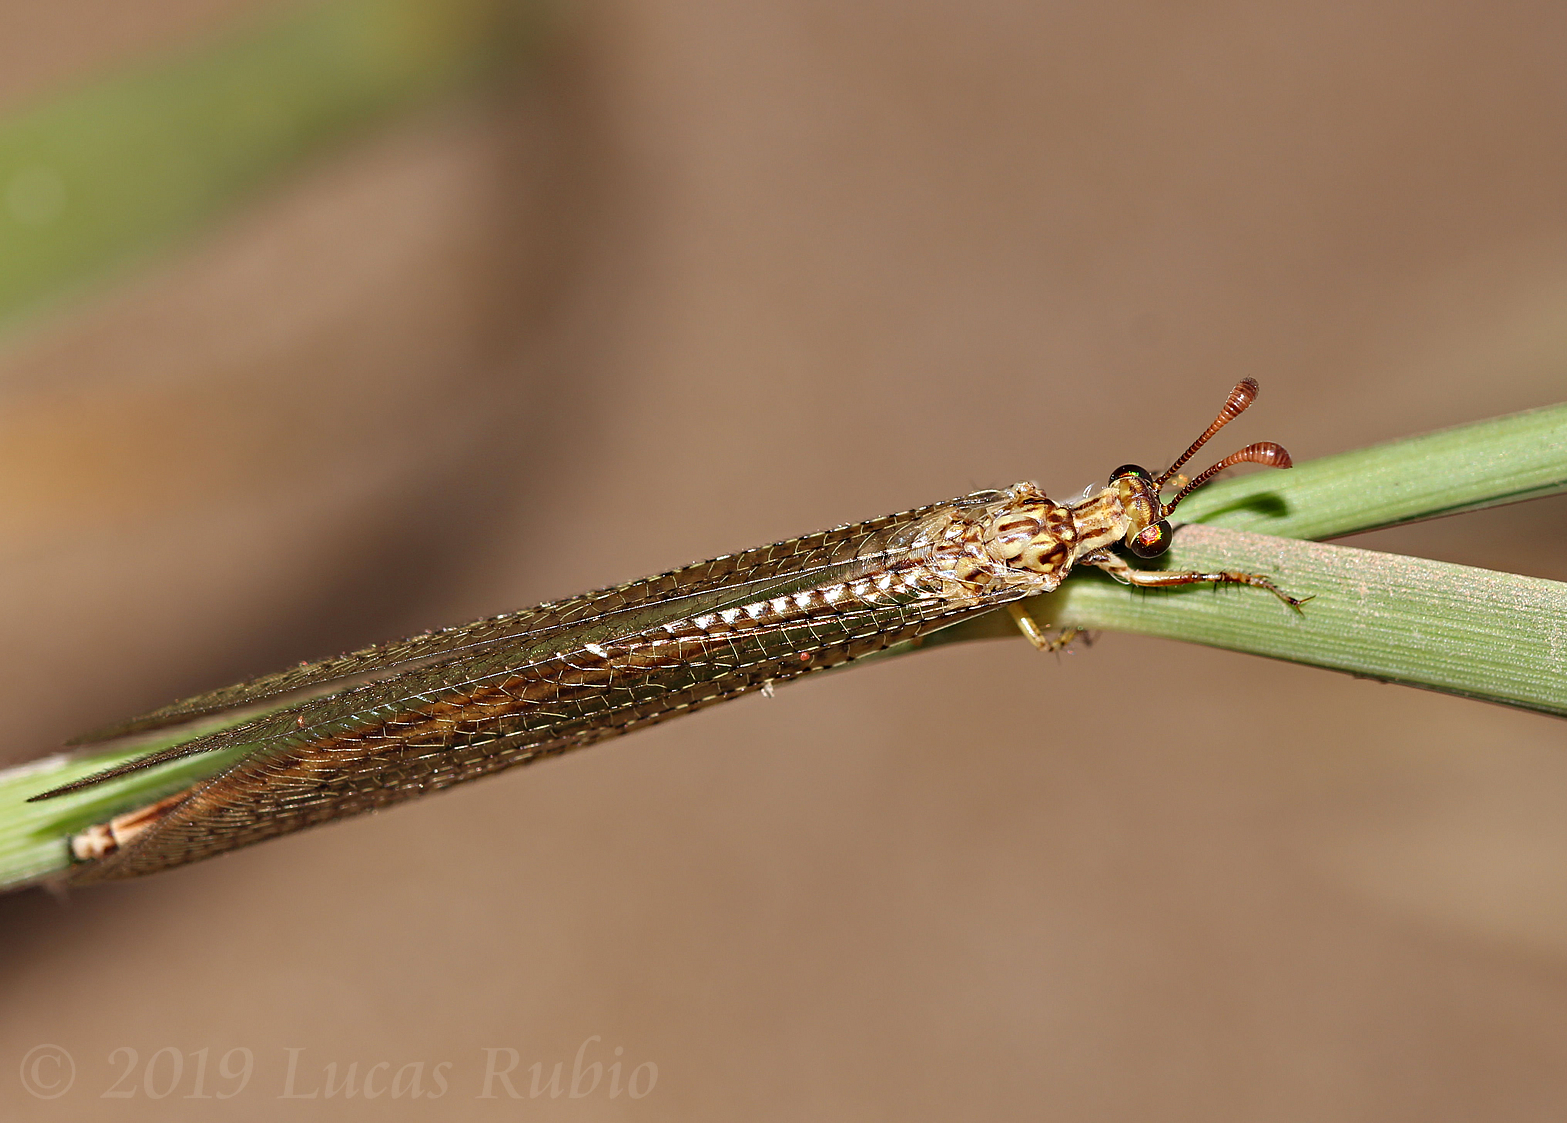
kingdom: Animalia
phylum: Arthropoda
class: Insecta
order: Neuroptera
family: Myrmeleontidae
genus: Argentoleon
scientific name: Argentoleon irrigatus
